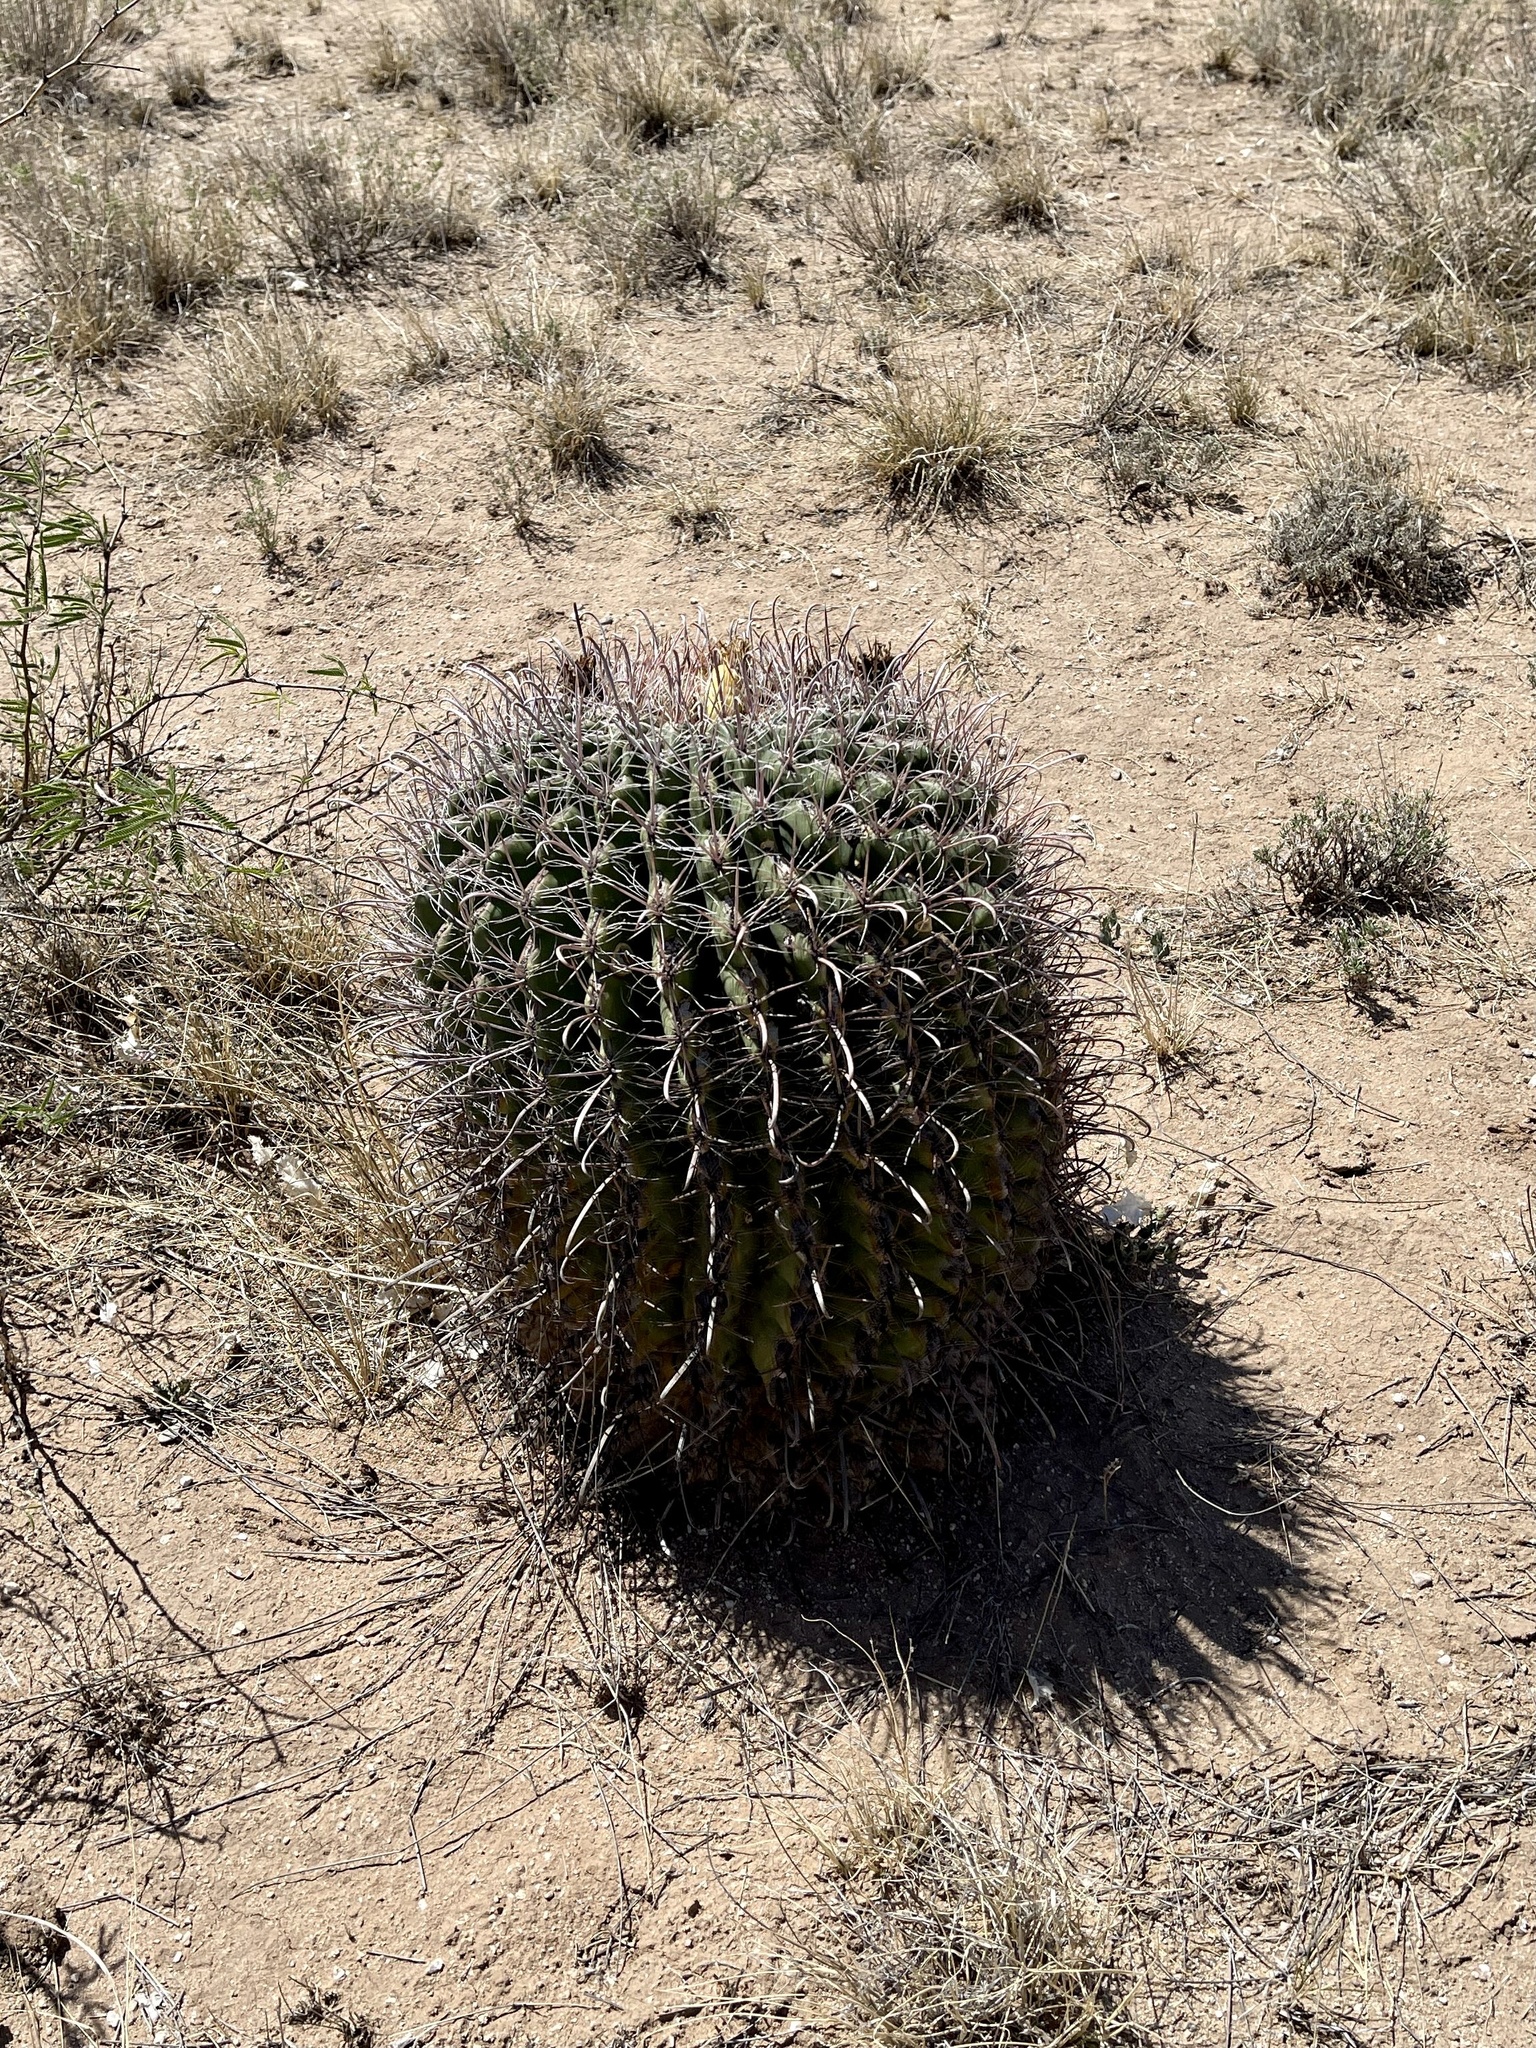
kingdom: Plantae
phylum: Tracheophyta
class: Magnoliopsida
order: Caryophyllales
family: Cactaceae
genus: Ferocactus
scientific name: Ferocactus wislizeni
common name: Candy barrel cactus
